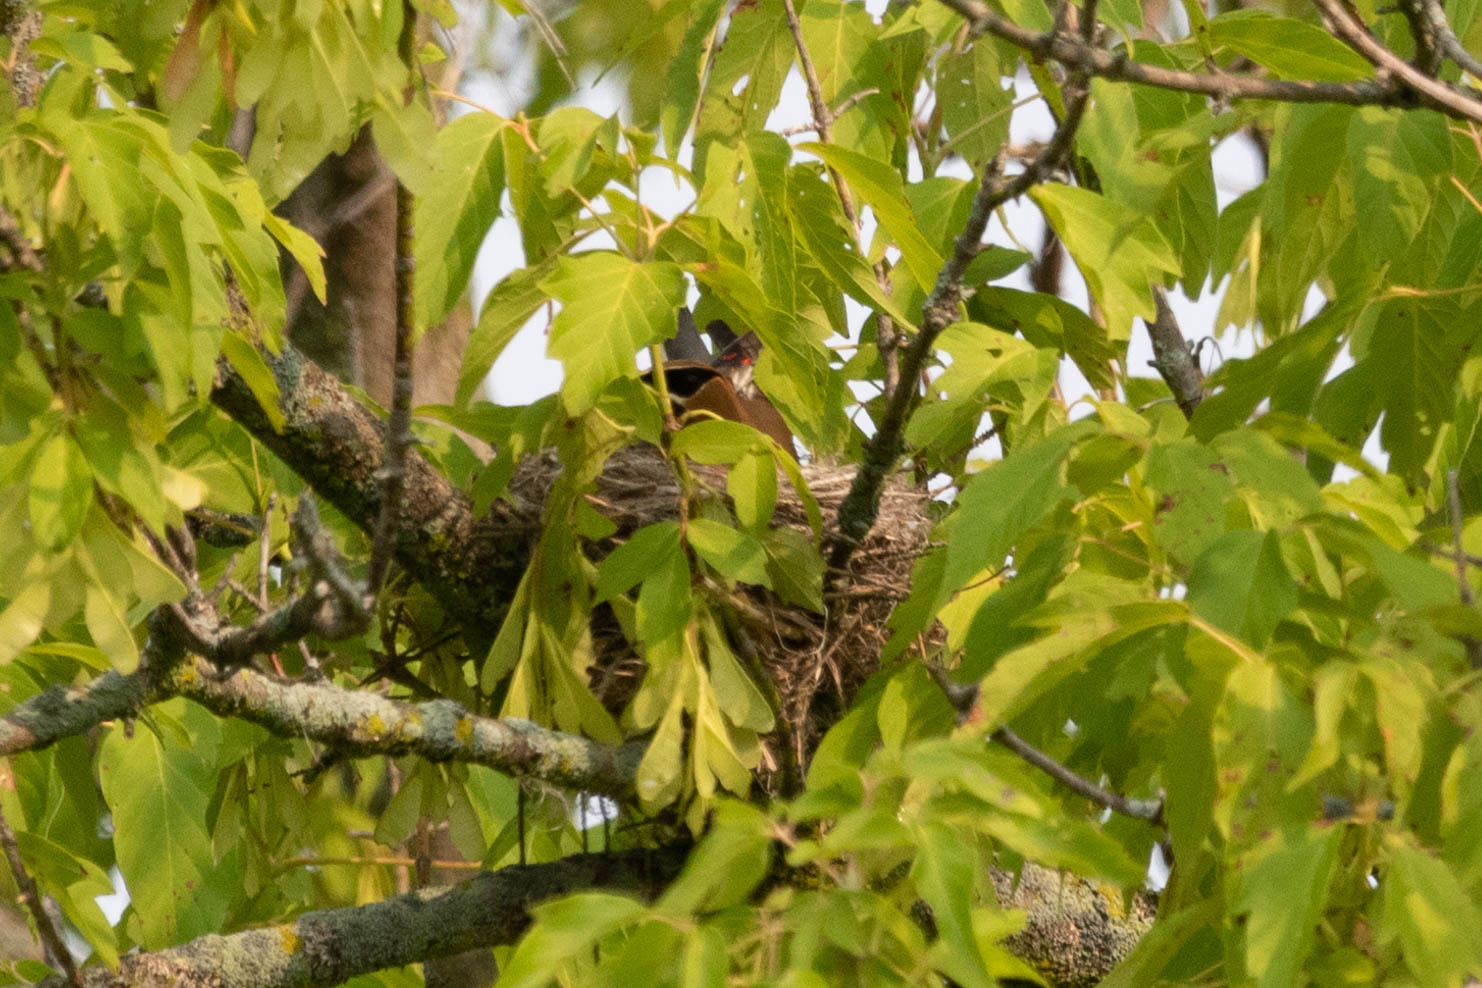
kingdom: Animalia
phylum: Chordata
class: Aves
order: Passeriformes
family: Bombycillidae
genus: Bombycilla
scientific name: Bombycilla cedrorum
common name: Cedar waxwing
